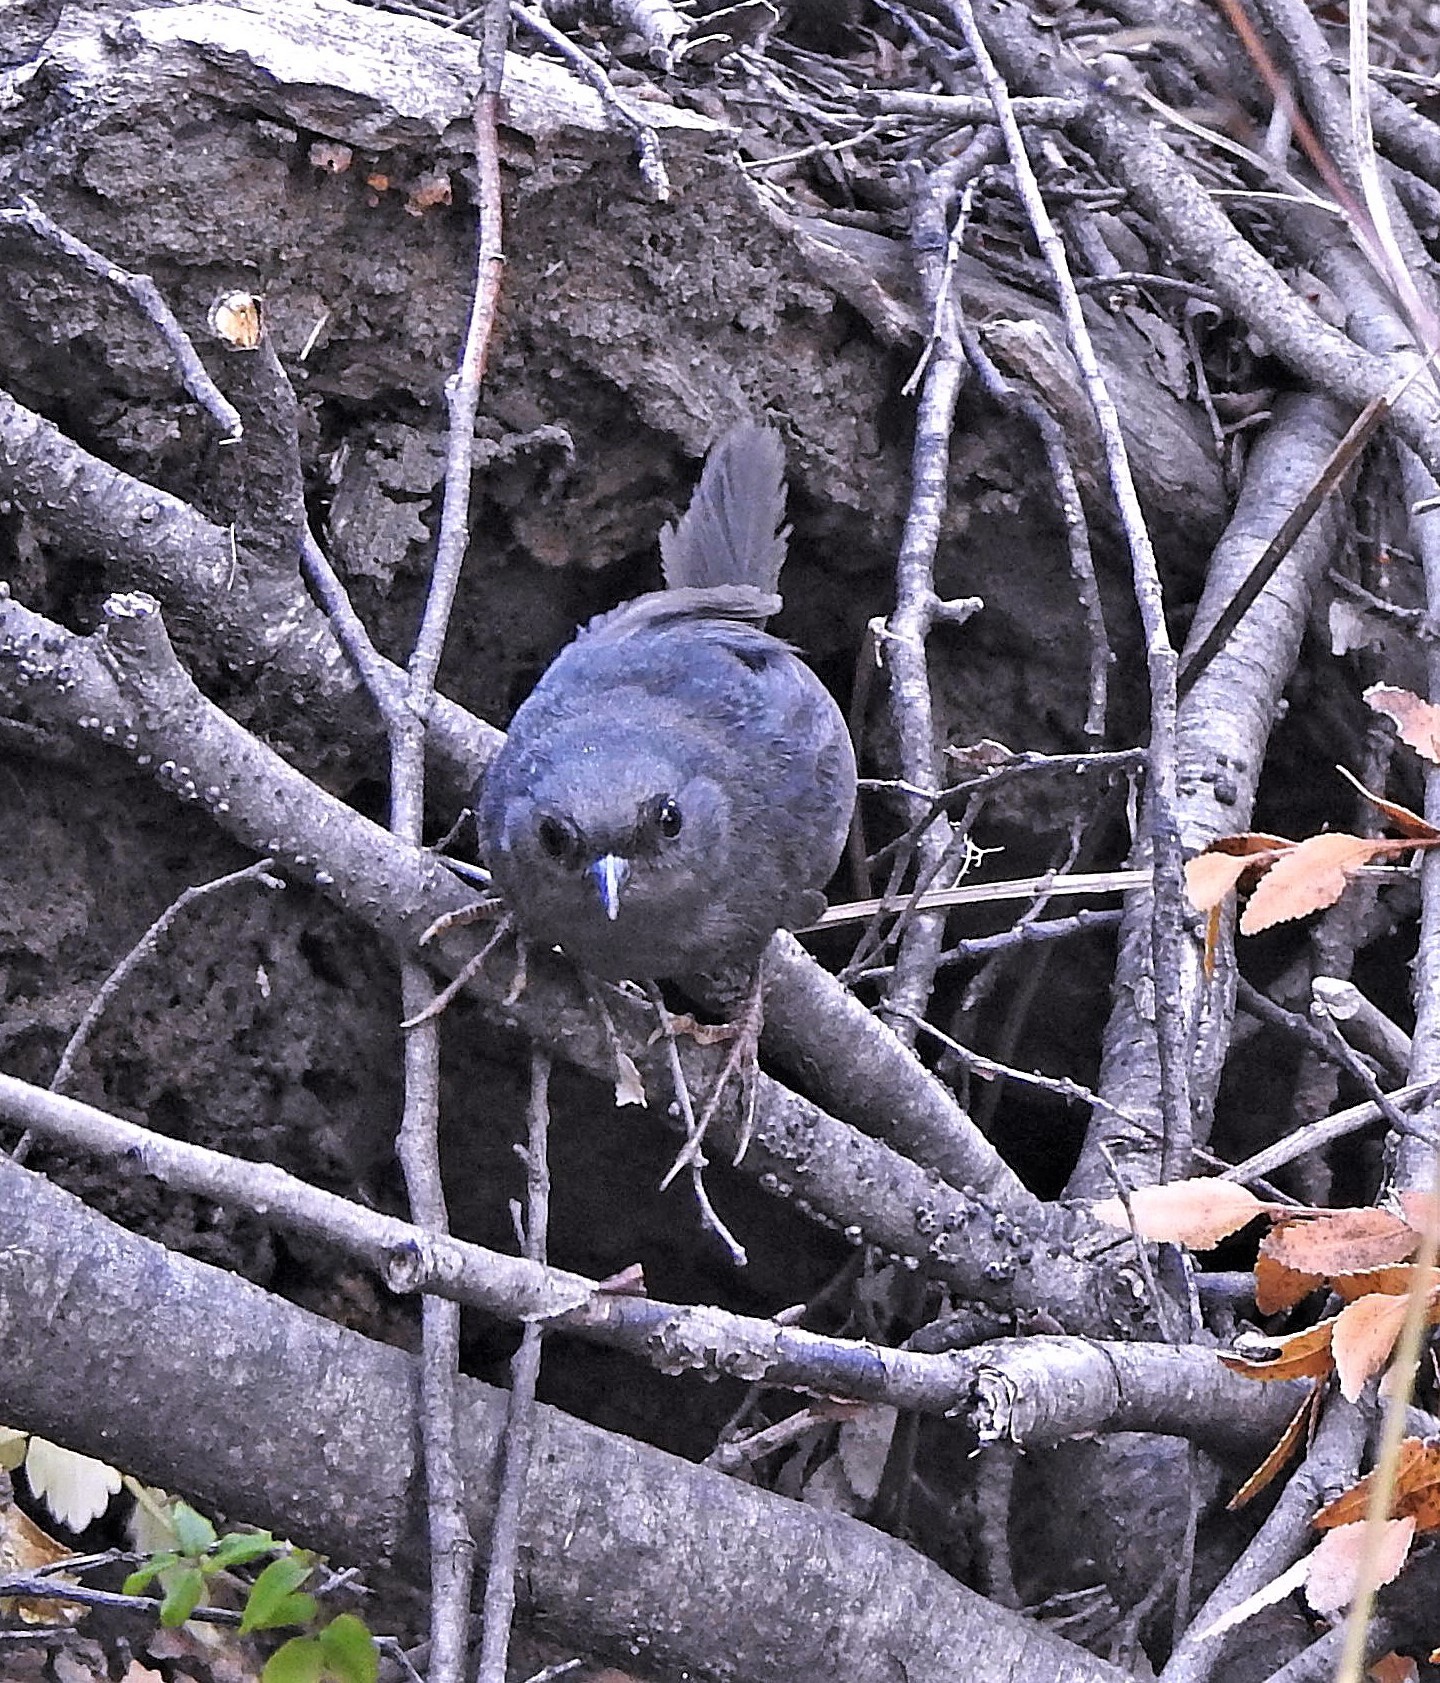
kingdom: Animalia
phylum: Chordata
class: Aves
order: Passeriformes
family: Rhinocryptidae
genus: Scytalopus
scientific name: Scytalopus magellanicus
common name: Magellanic tapaculo
